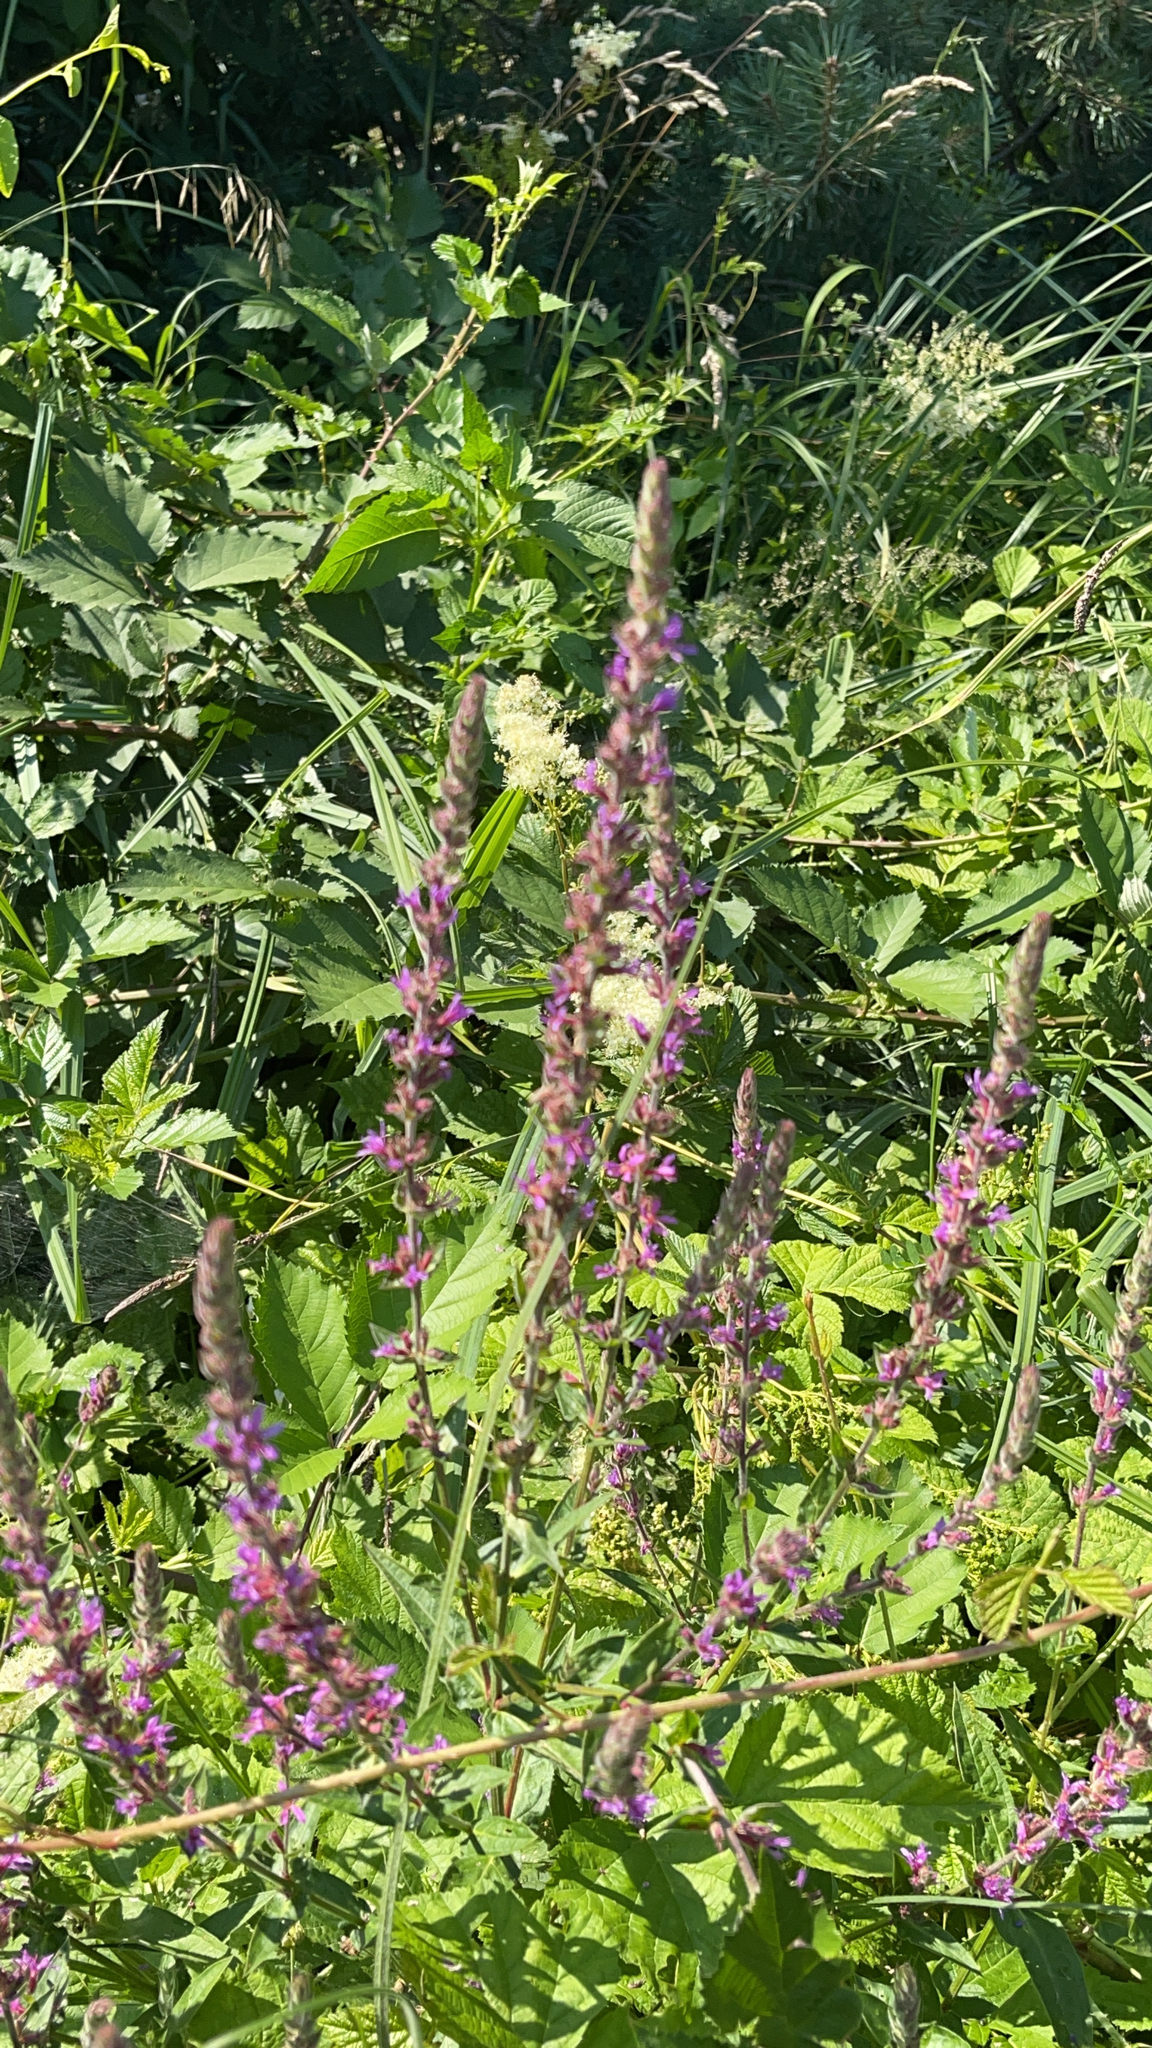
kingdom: Plantae
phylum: Tracheophyta
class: Magnoliopsida
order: Myrtales
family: Lythraceae
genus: Lythrum
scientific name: Lythrum salicaria
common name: Purple loosestrife
